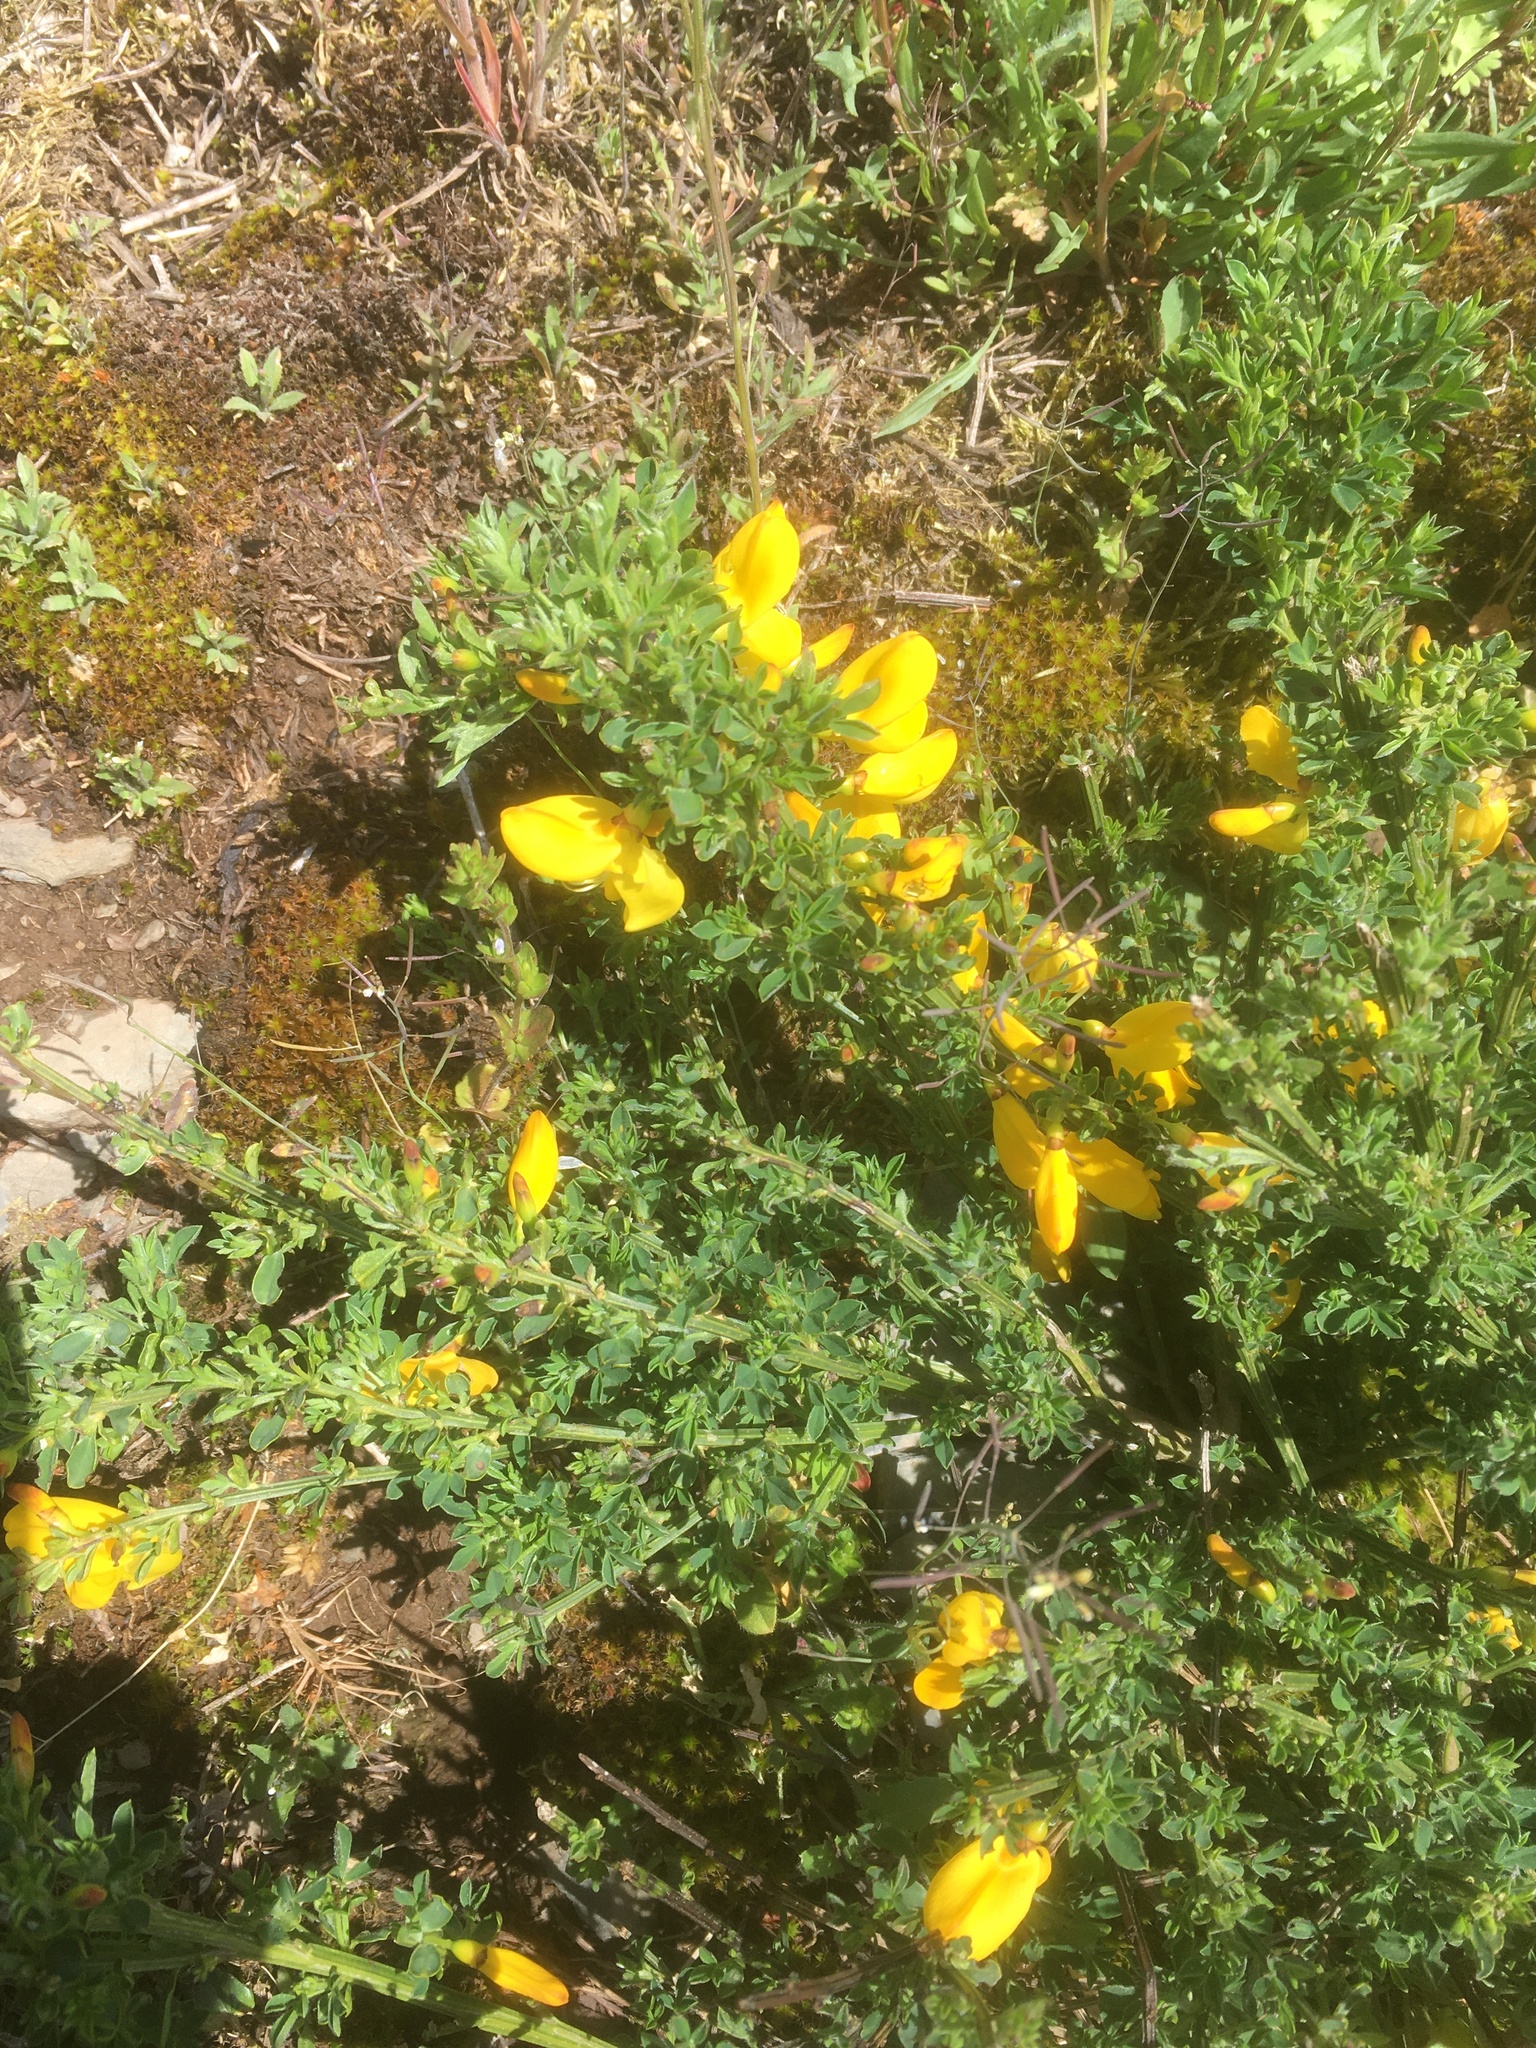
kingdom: Plantae
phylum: Tracheophyta
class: Magnoliopsida
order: Fabales
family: Fabaceae
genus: Cytisus
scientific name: Cytisus scoparius
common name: Scotch broom
